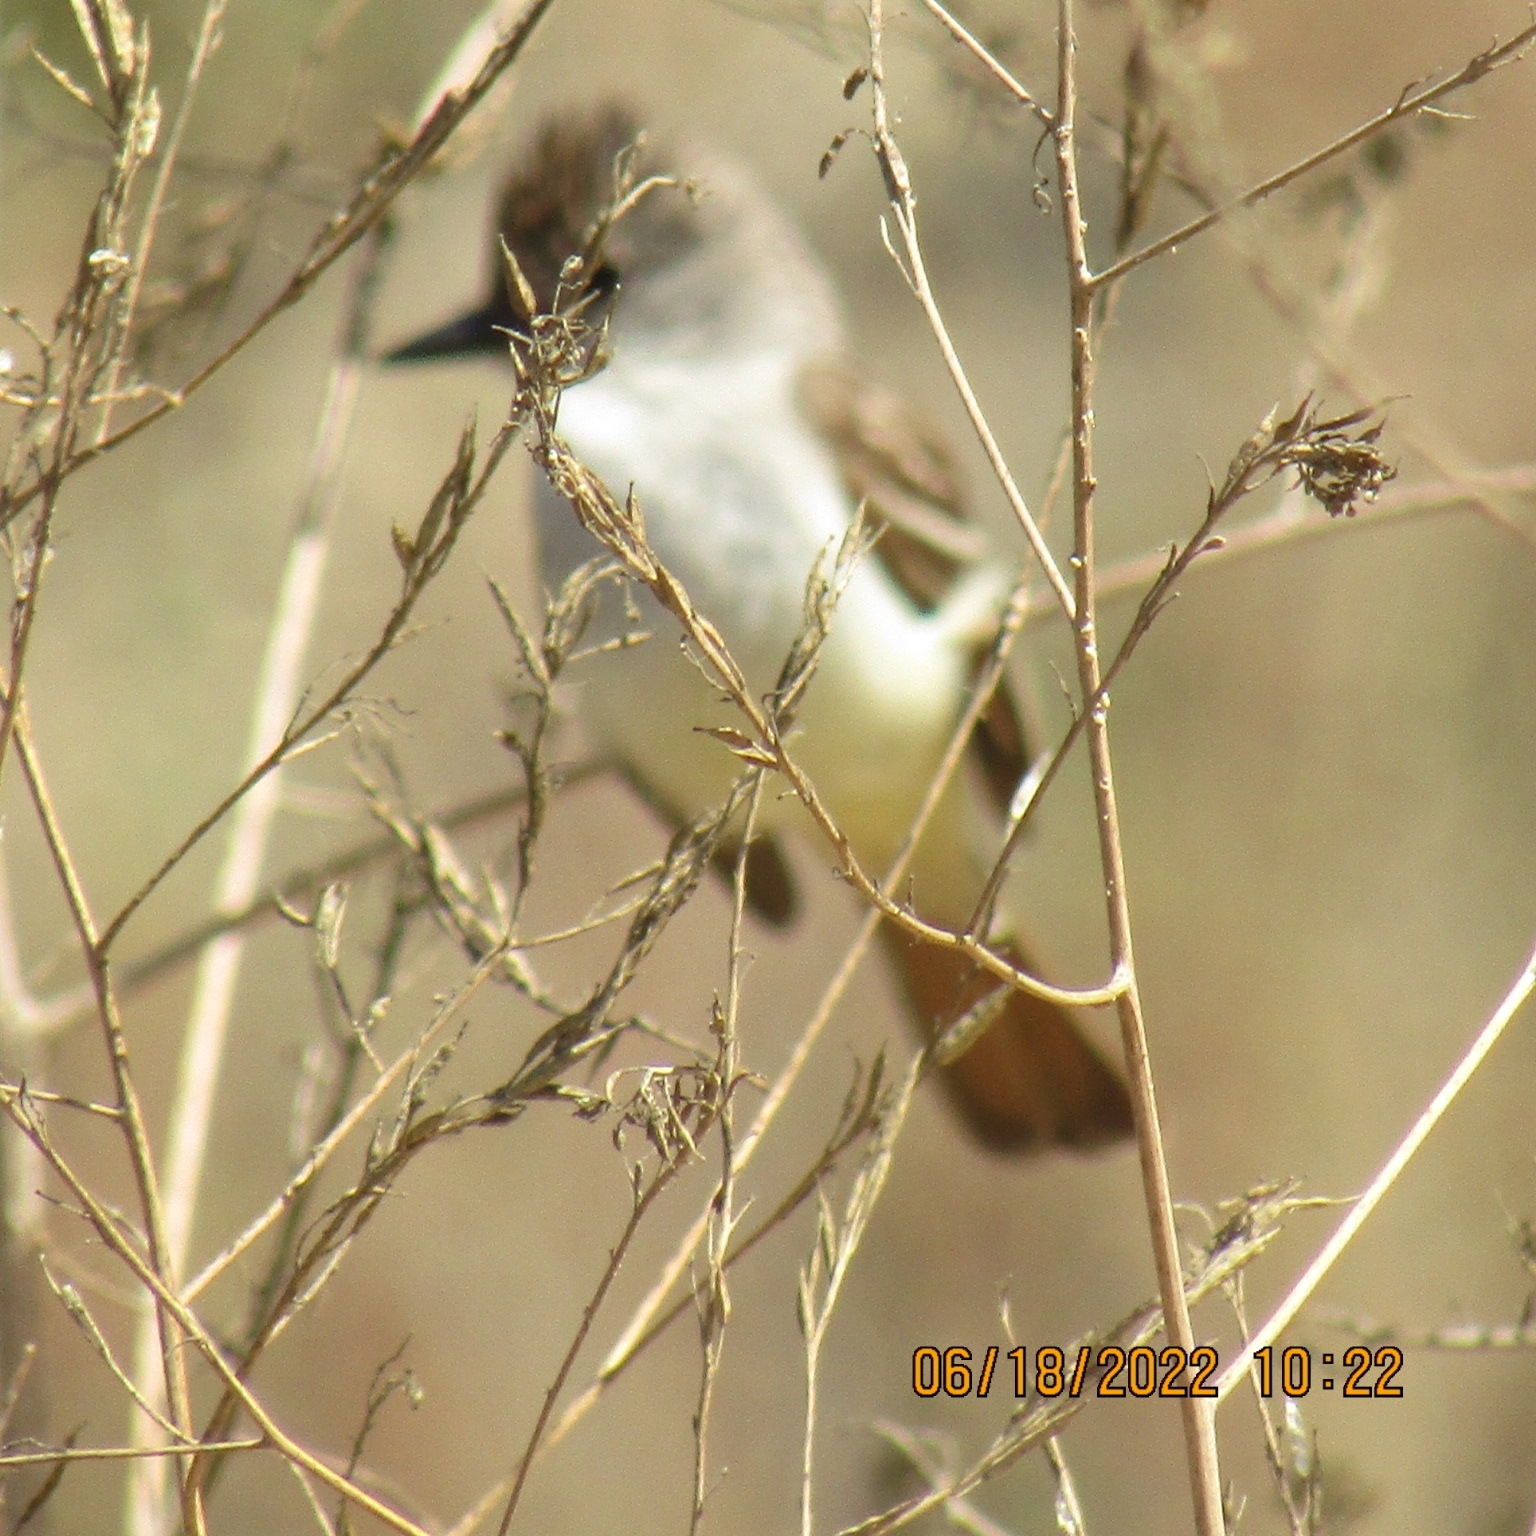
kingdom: Animalia
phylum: Chordata
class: Aves
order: Passeriformes
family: Tyrannidae
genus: Myiarchus
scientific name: Myiarchus cinerascens
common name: Ash-throated flycatcher
